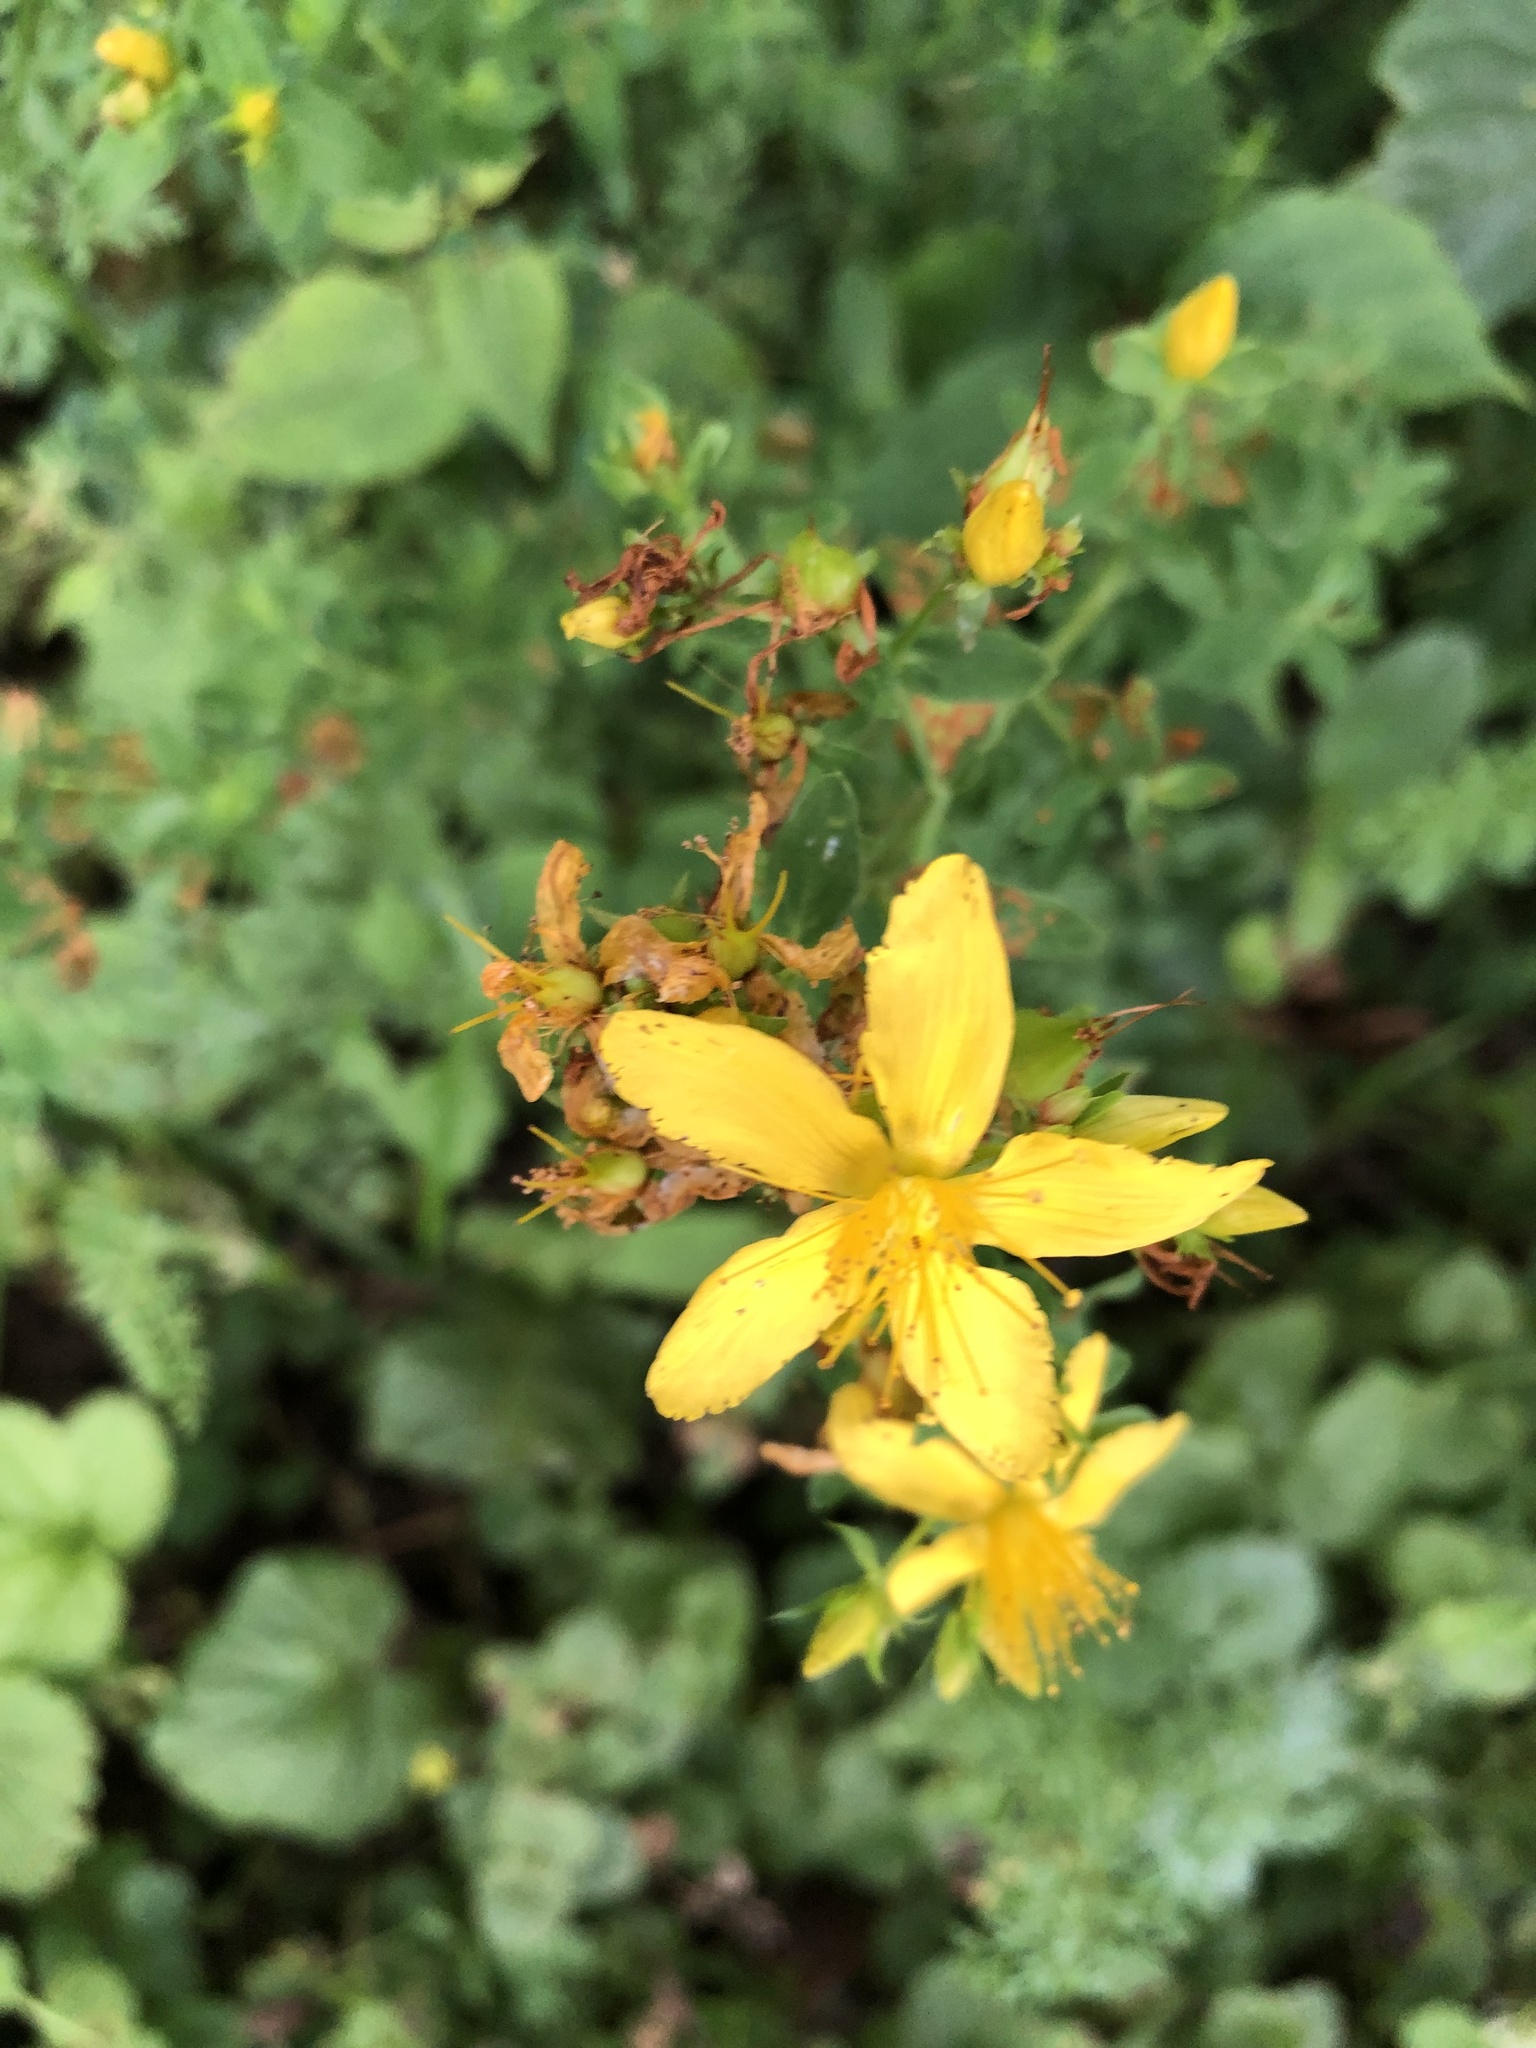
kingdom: Plantae
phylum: Tracheophyta
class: Magnoliopsida
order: Malpighiales
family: Hypericaceae
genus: Hypericum
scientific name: Hypericum perforatum
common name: Common st. johnswort
